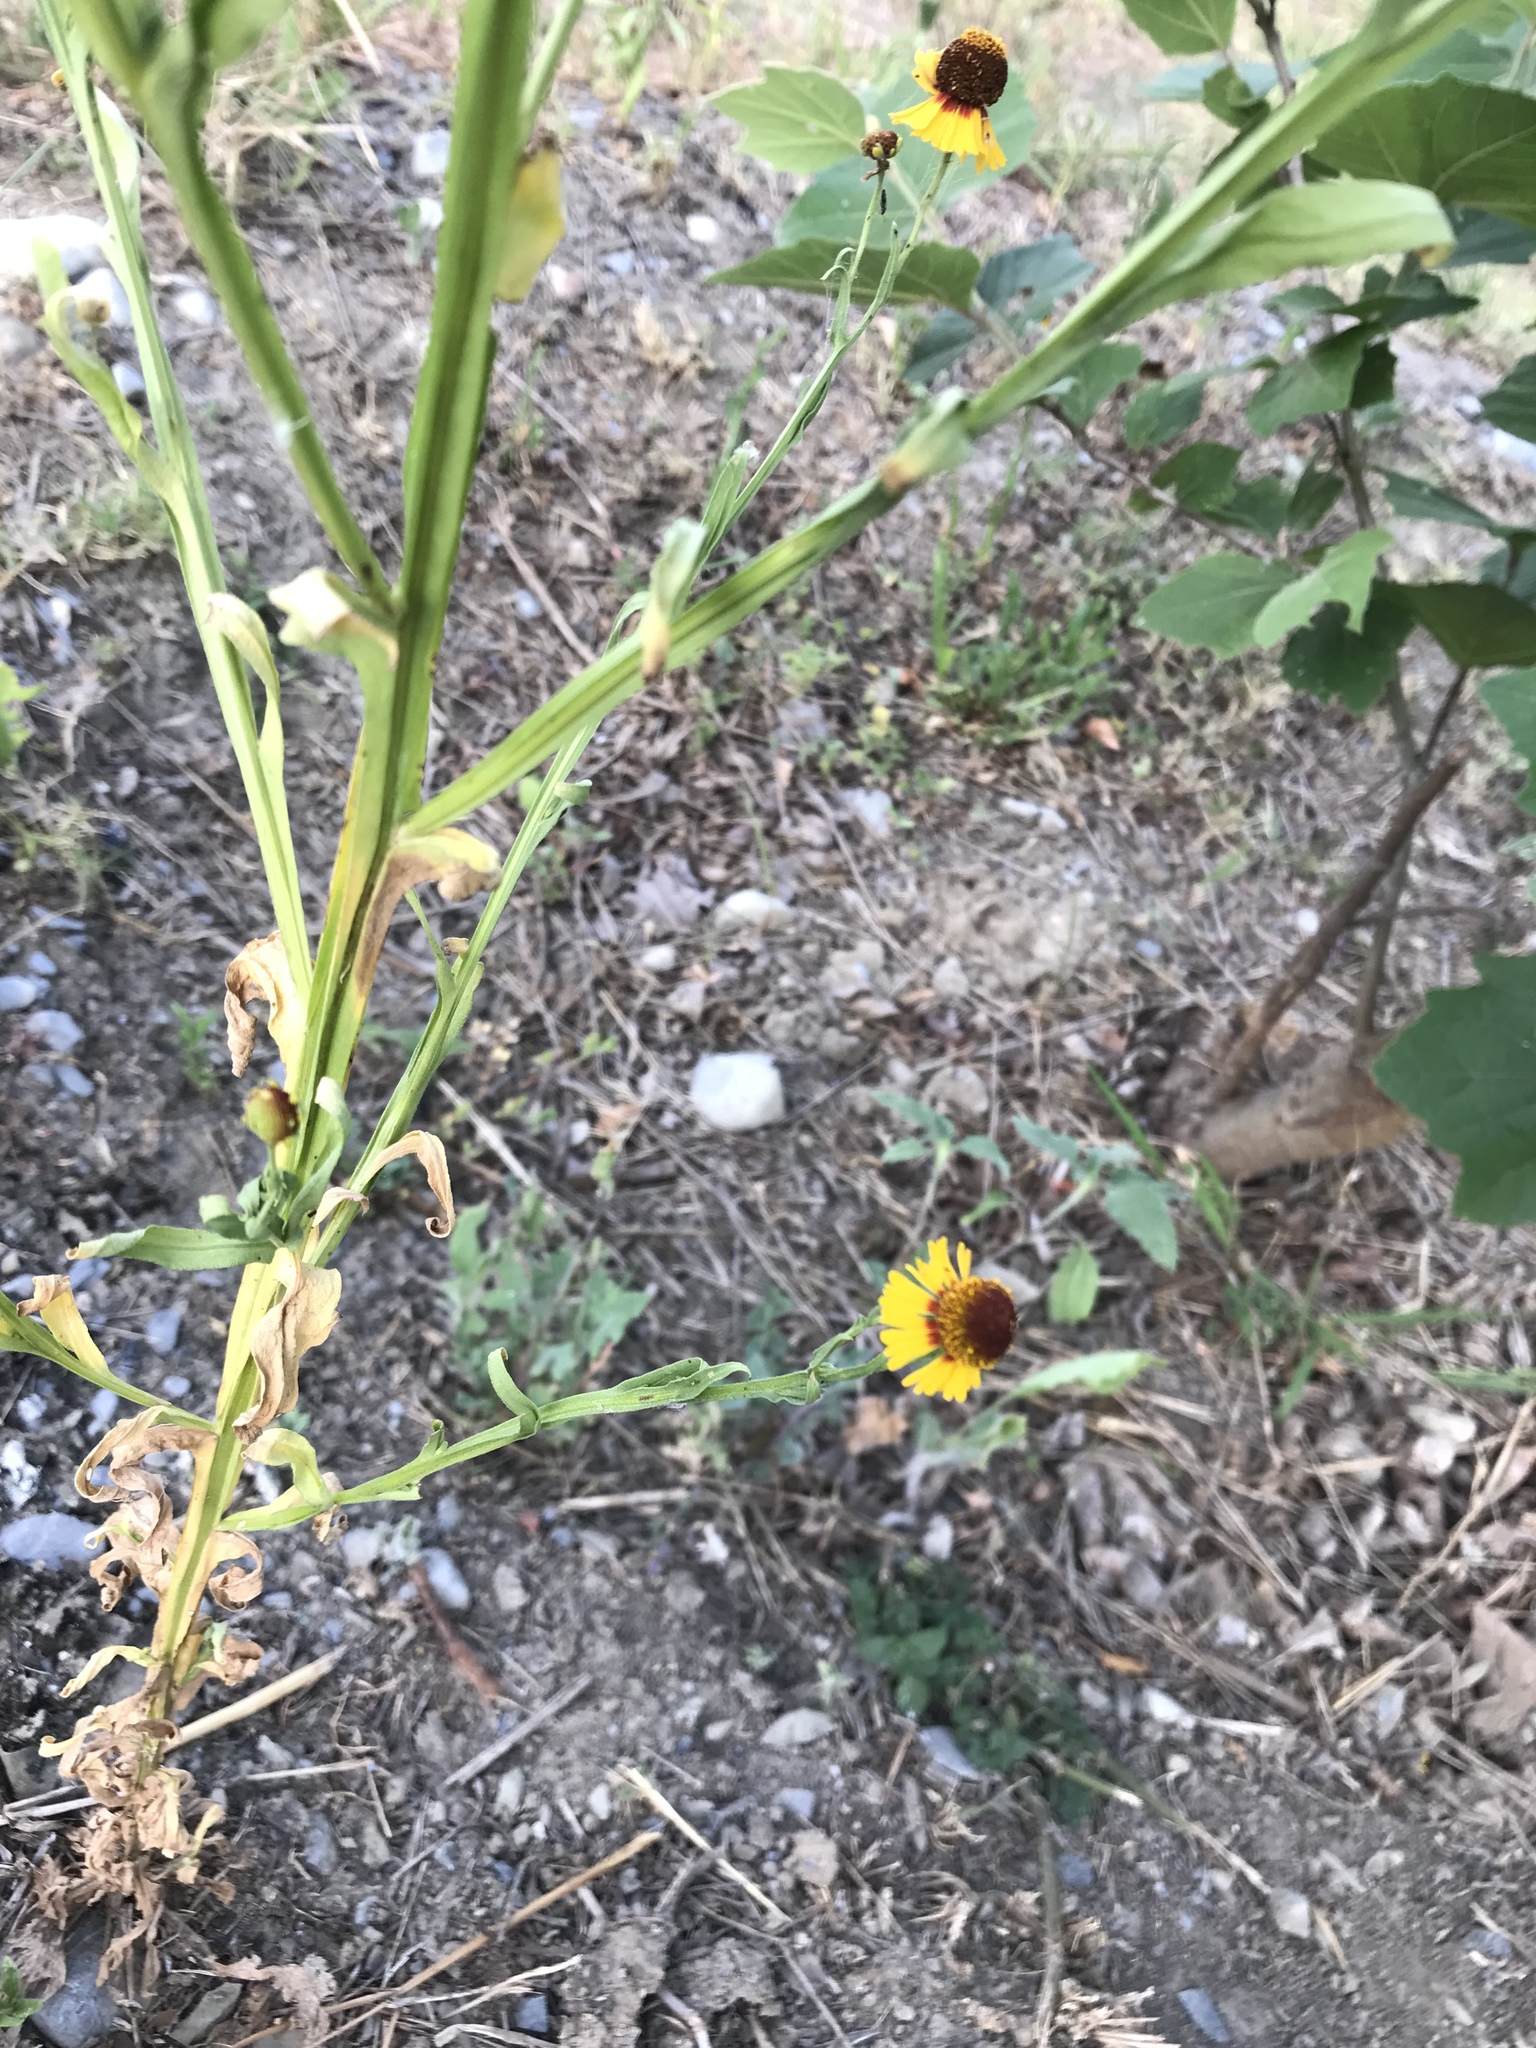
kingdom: Plantae
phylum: Tracheophyta
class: Magnoliopsida
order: Asterales
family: Asteraceae
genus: Helenium
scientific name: Helenium amphibolum
